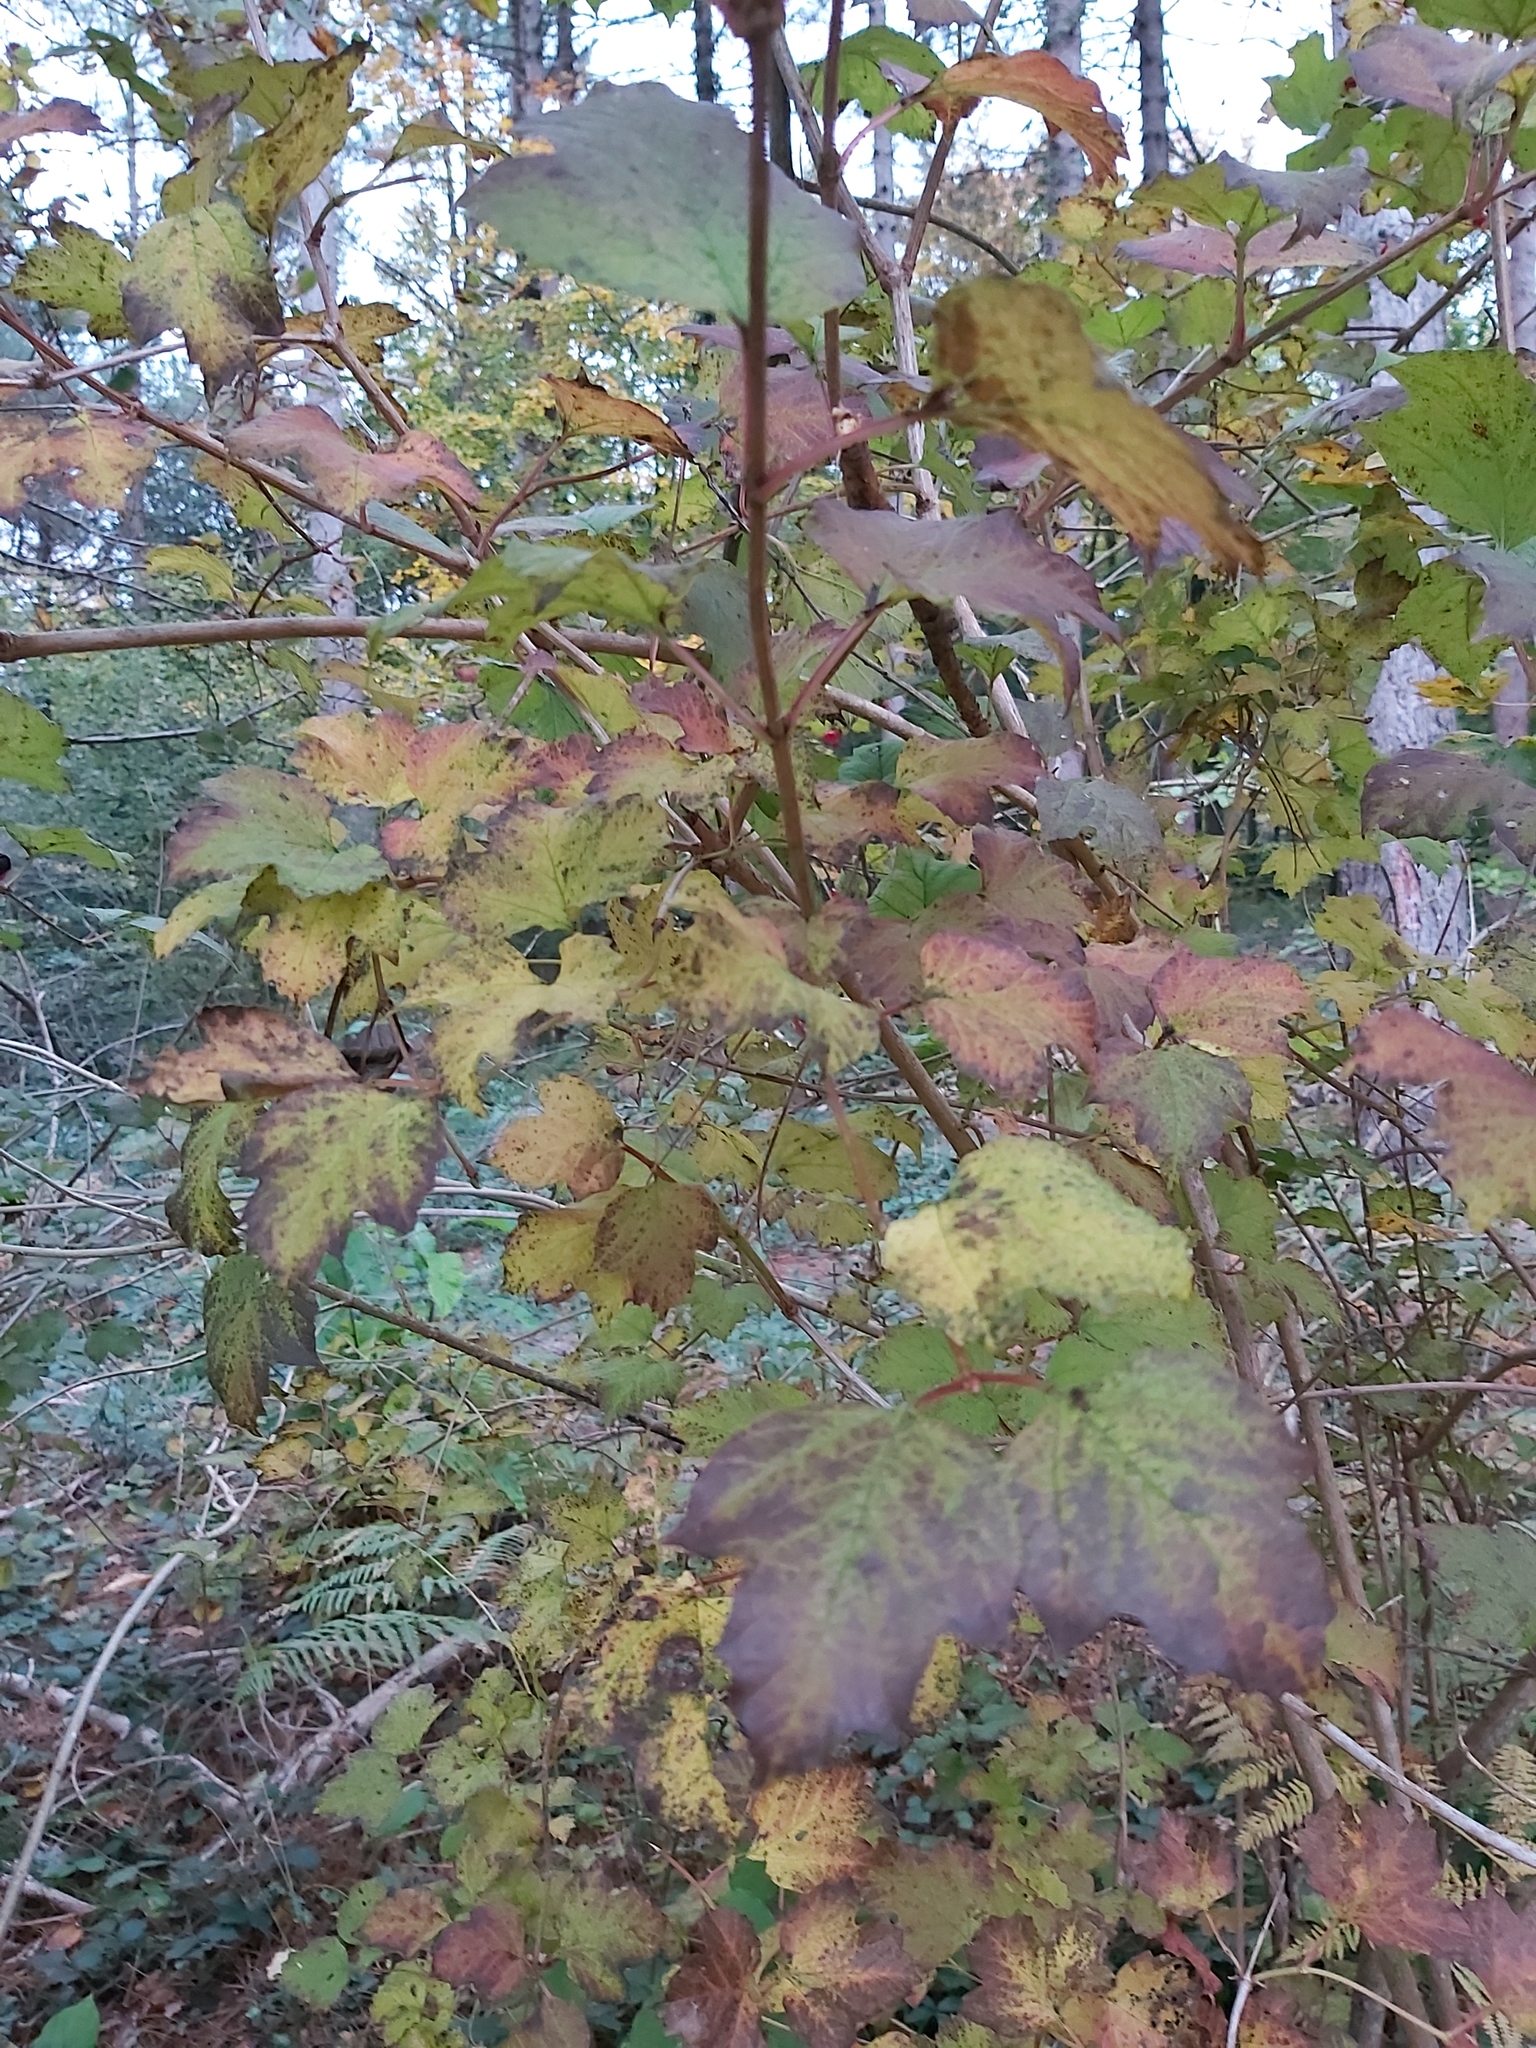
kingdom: Plantae
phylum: Tracheophyta
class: Magnoliopsida
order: Dipsacales
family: Viburnaceae
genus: Viburnum
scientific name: Viburnum opulus
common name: Guelder-rose
